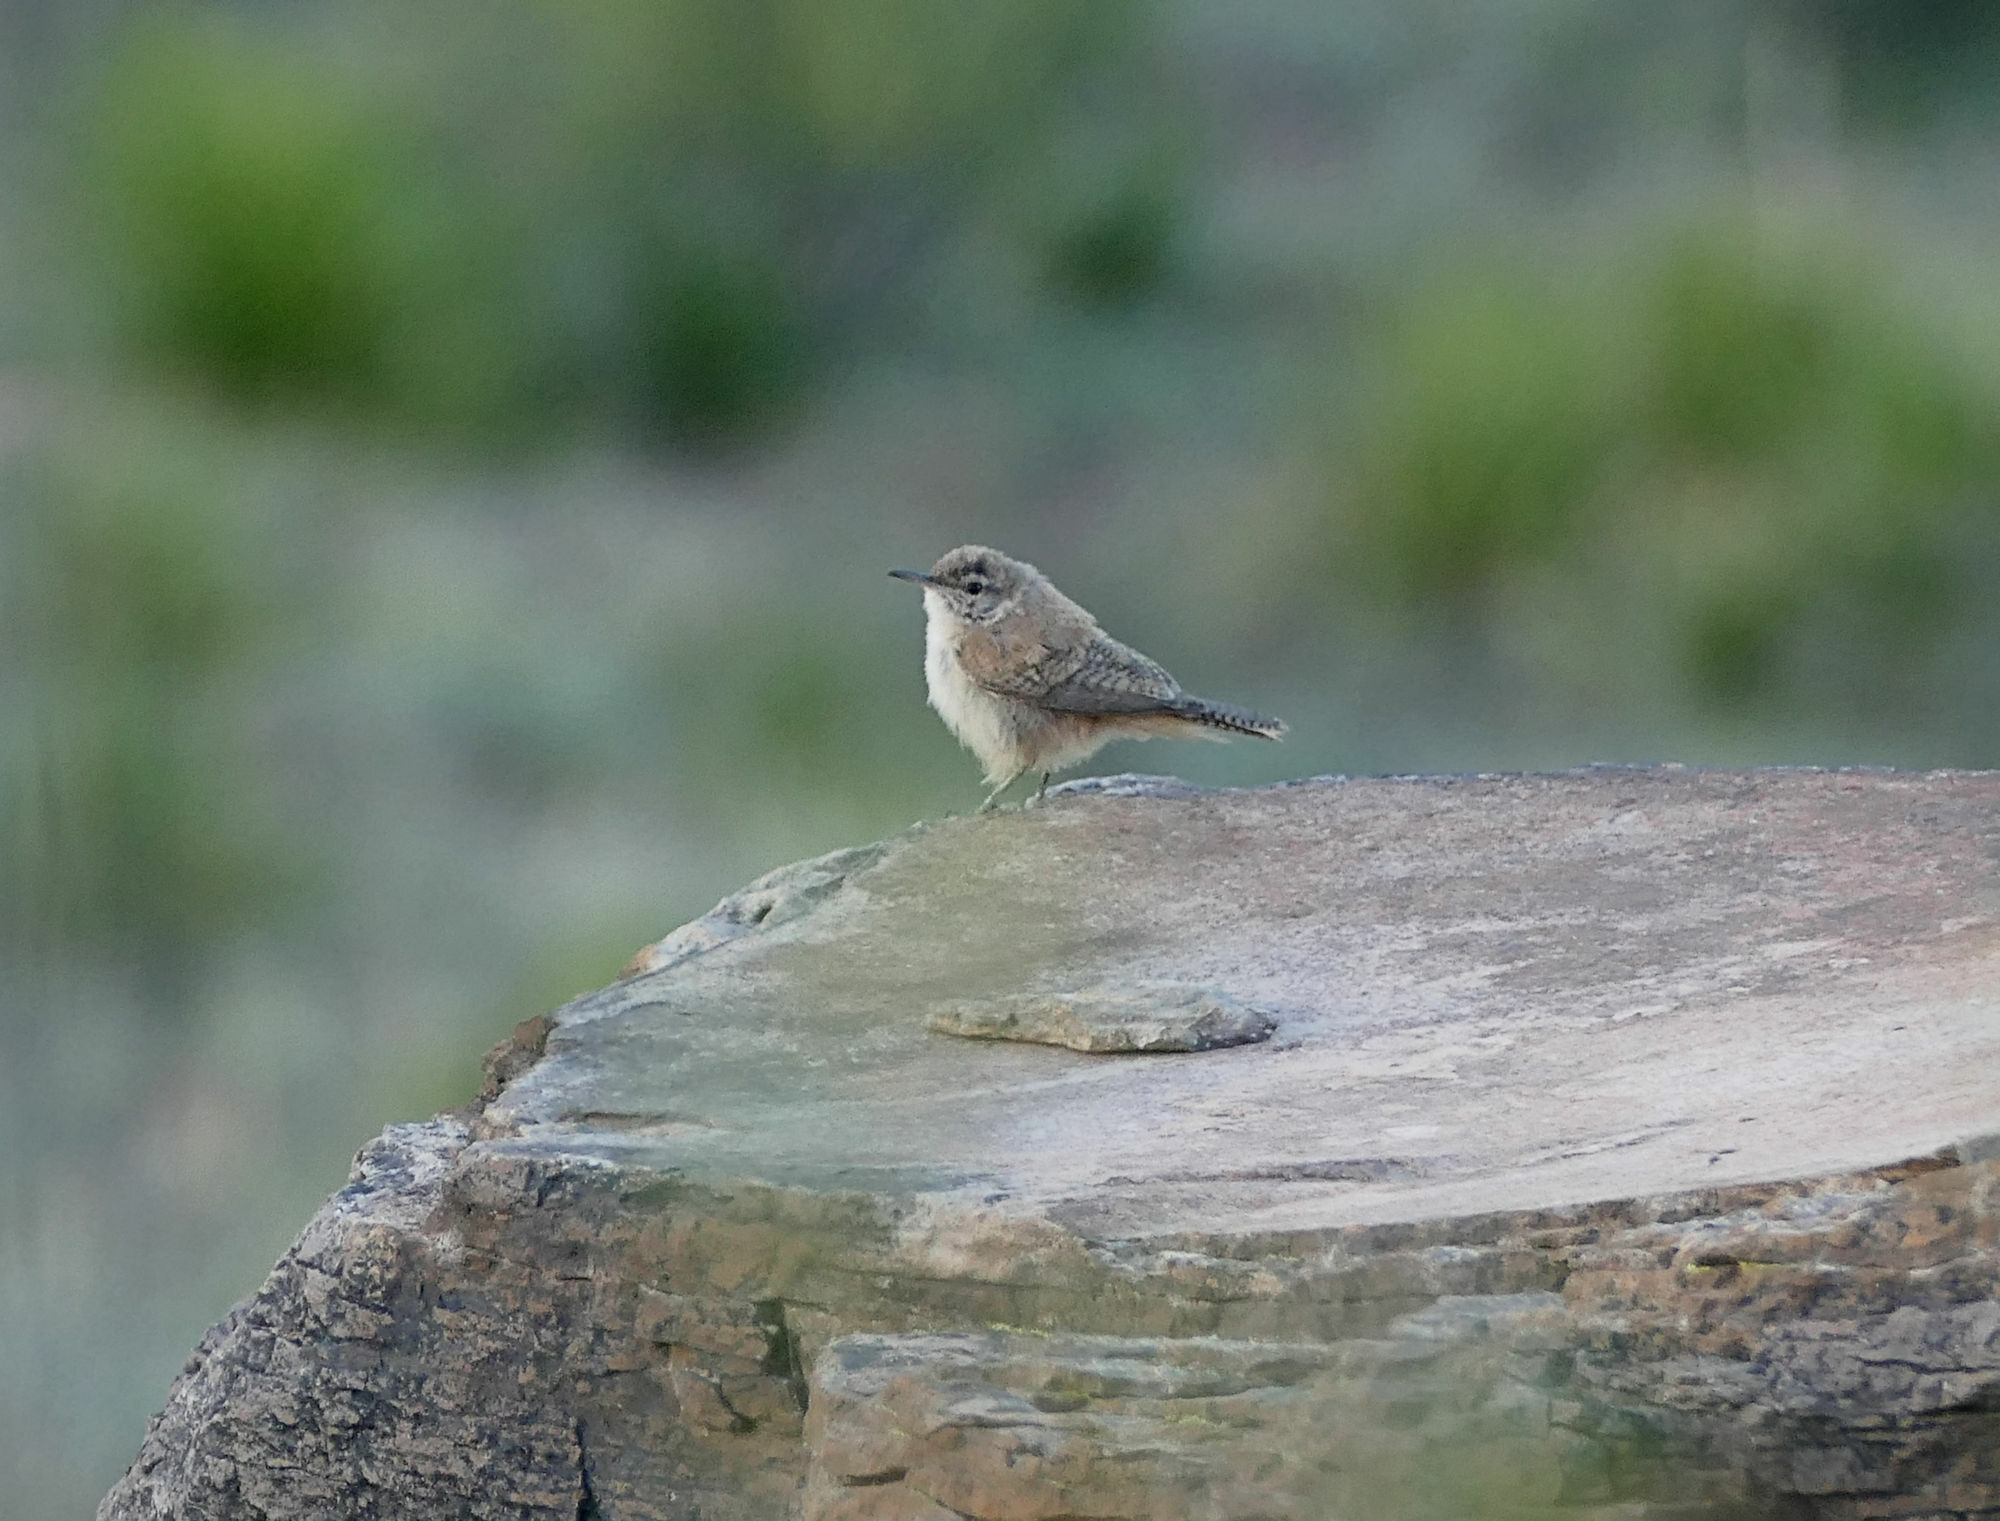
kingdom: Animalia
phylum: Chordata
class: Aves
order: Passeriformes
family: Troglodytidae
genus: Salpinctes
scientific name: Salpinctes obsoletus
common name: Rock wren
